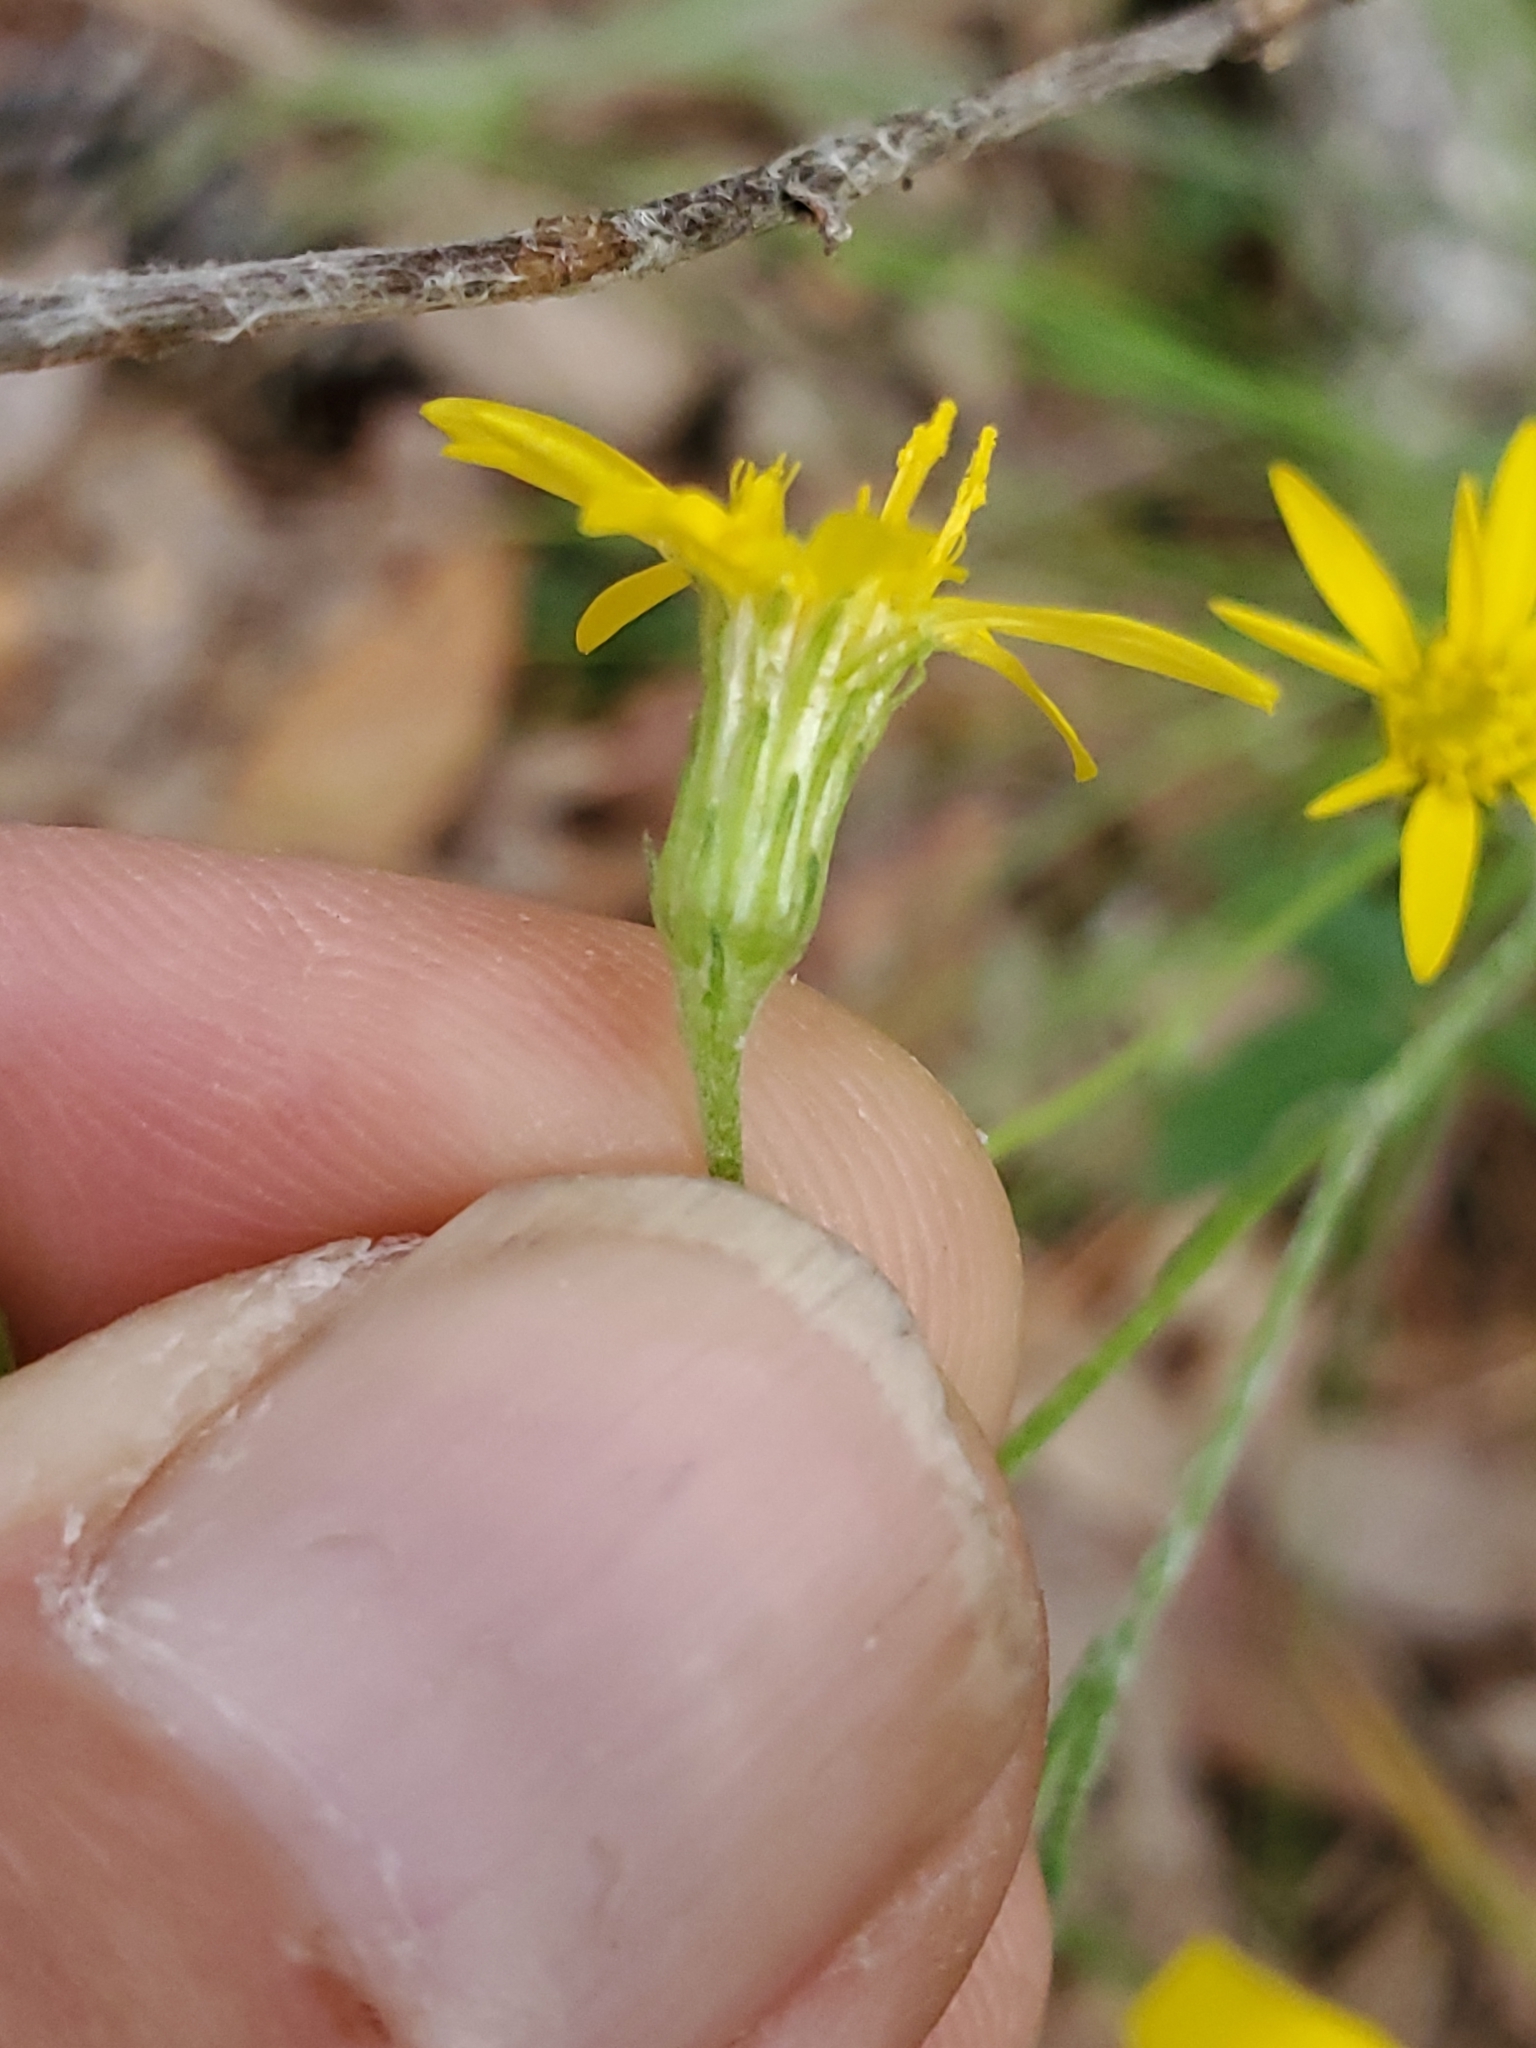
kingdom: Plantae
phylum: Tracheophyta
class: Magnoliopsida
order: Asterales
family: Asteraceae
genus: Pityopsis
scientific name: Pityopsis graminifolia
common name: Grass-leaf golden-aster
